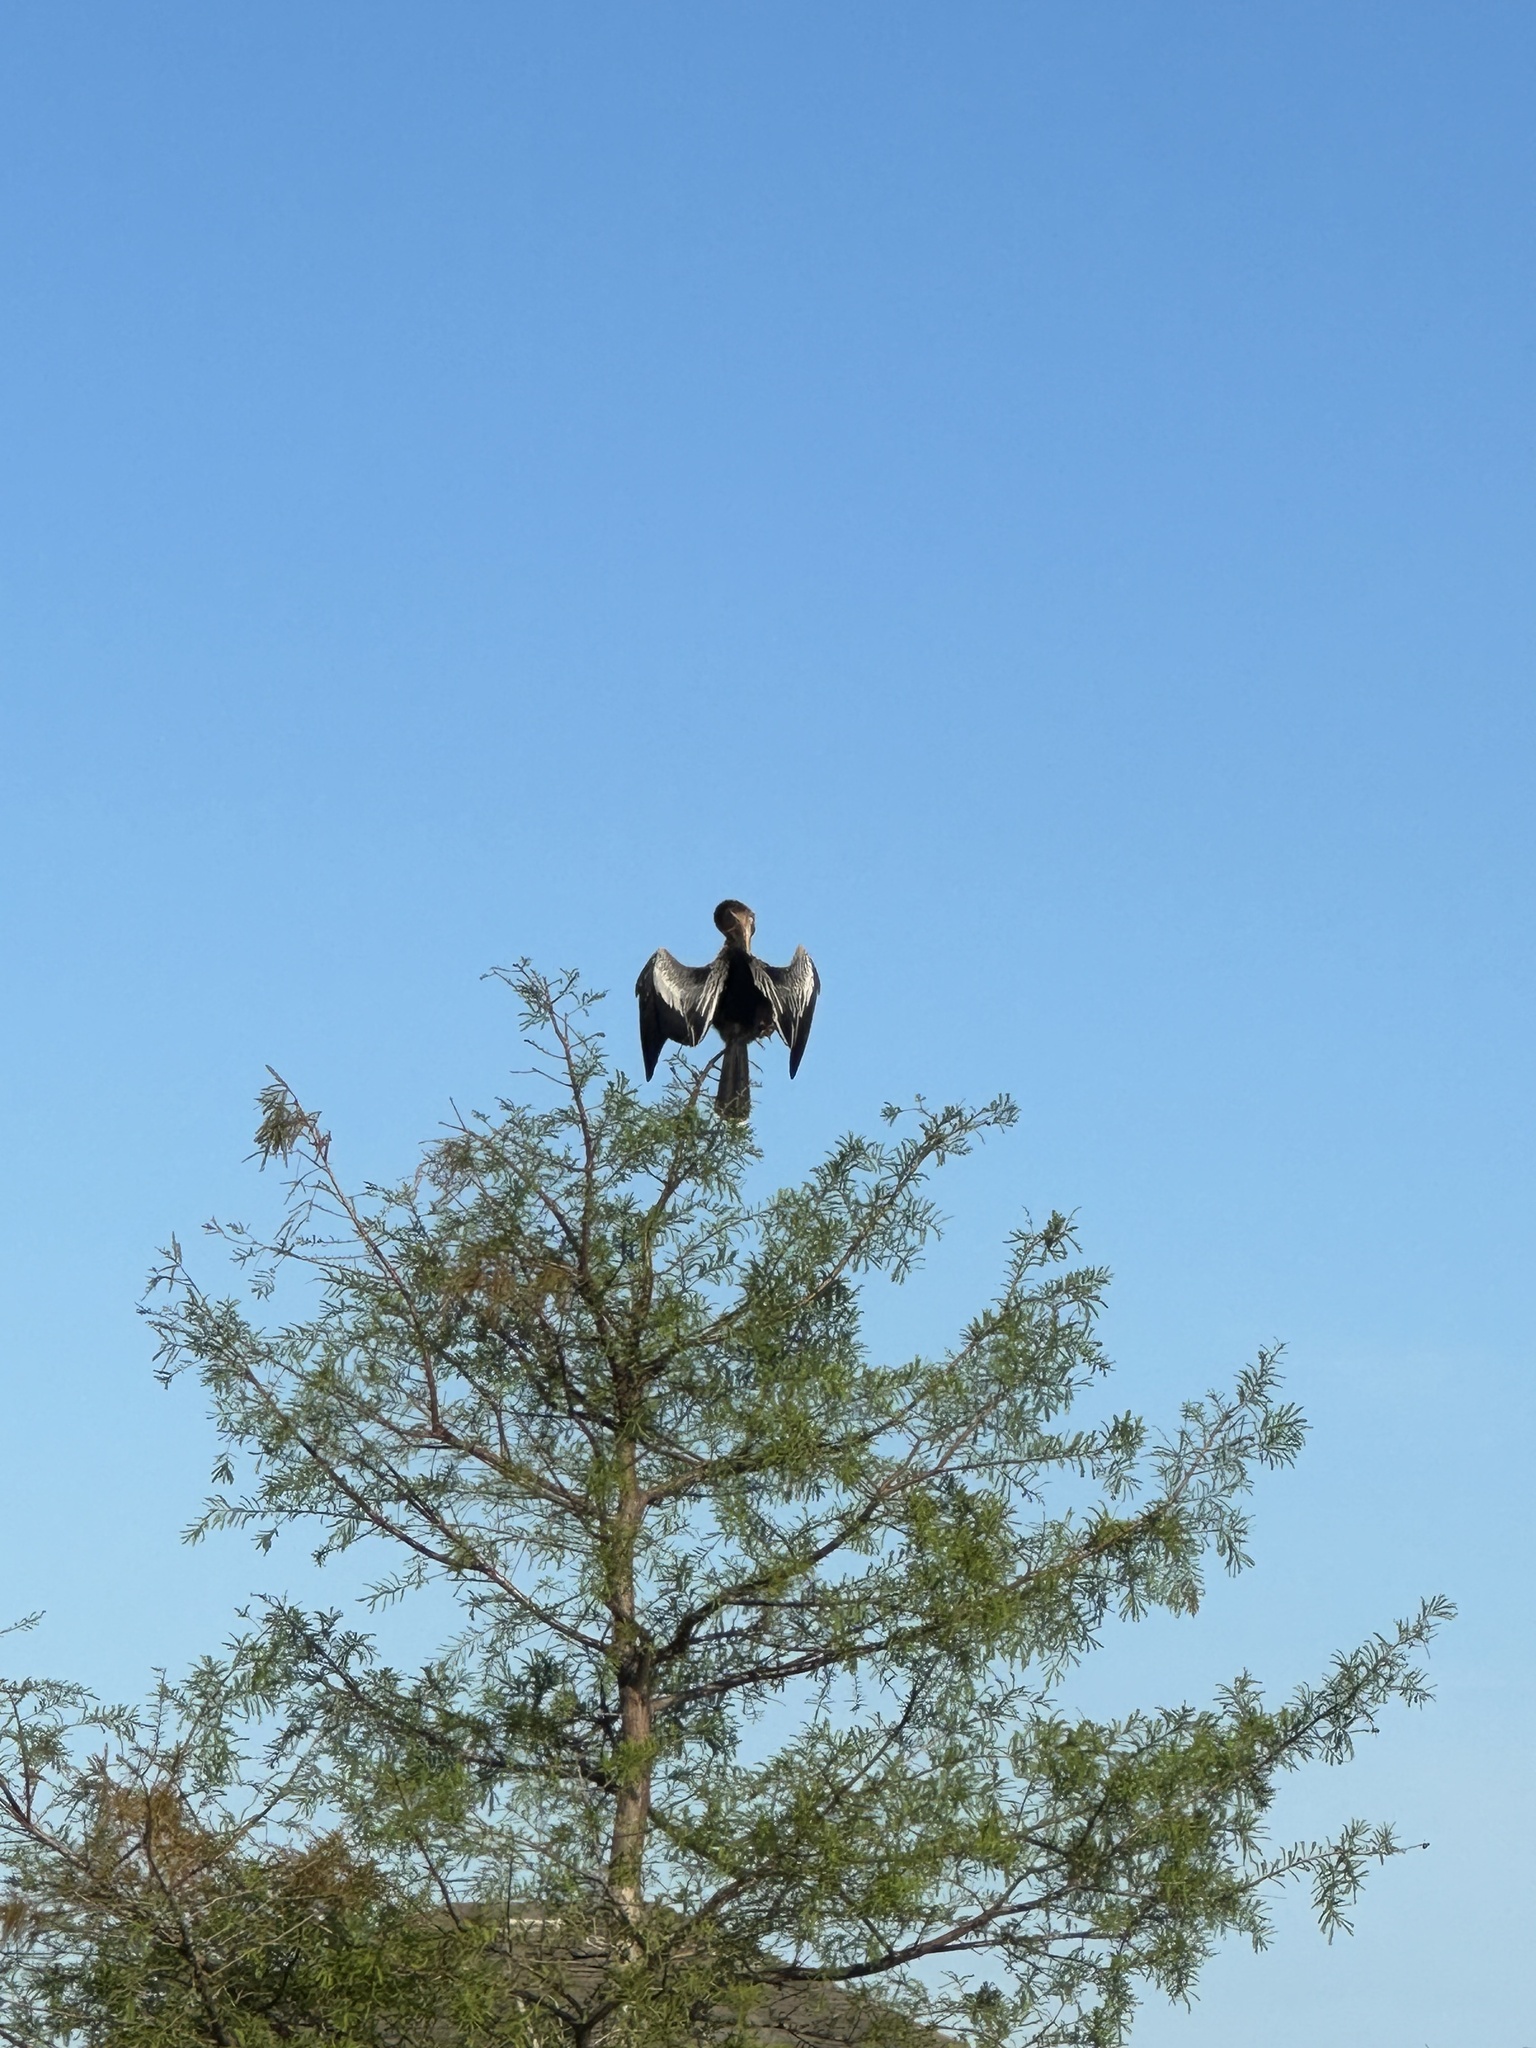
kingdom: Animalia
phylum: Chordata
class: Aves
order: Suliformes
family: Anhingidae
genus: Anhinga
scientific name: Anhinga anhinga
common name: Anhinga
